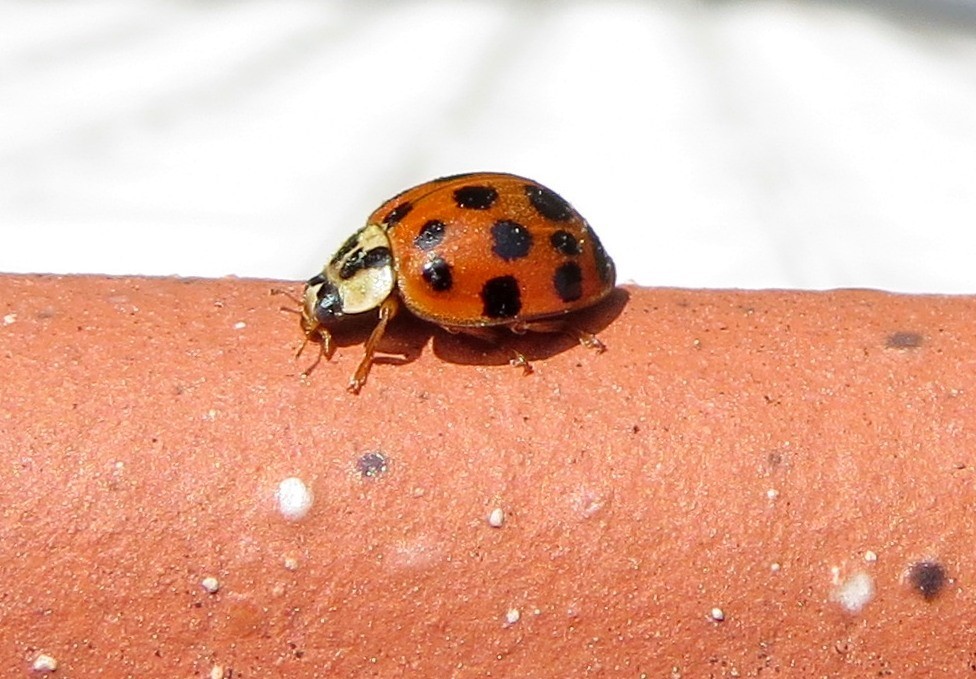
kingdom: Animalia
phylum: Arthropoda
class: Insecta
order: Coleoptera
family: Coccinellidae
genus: Harmonia
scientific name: Harmonia axyridis
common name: Harlequin ladybird
